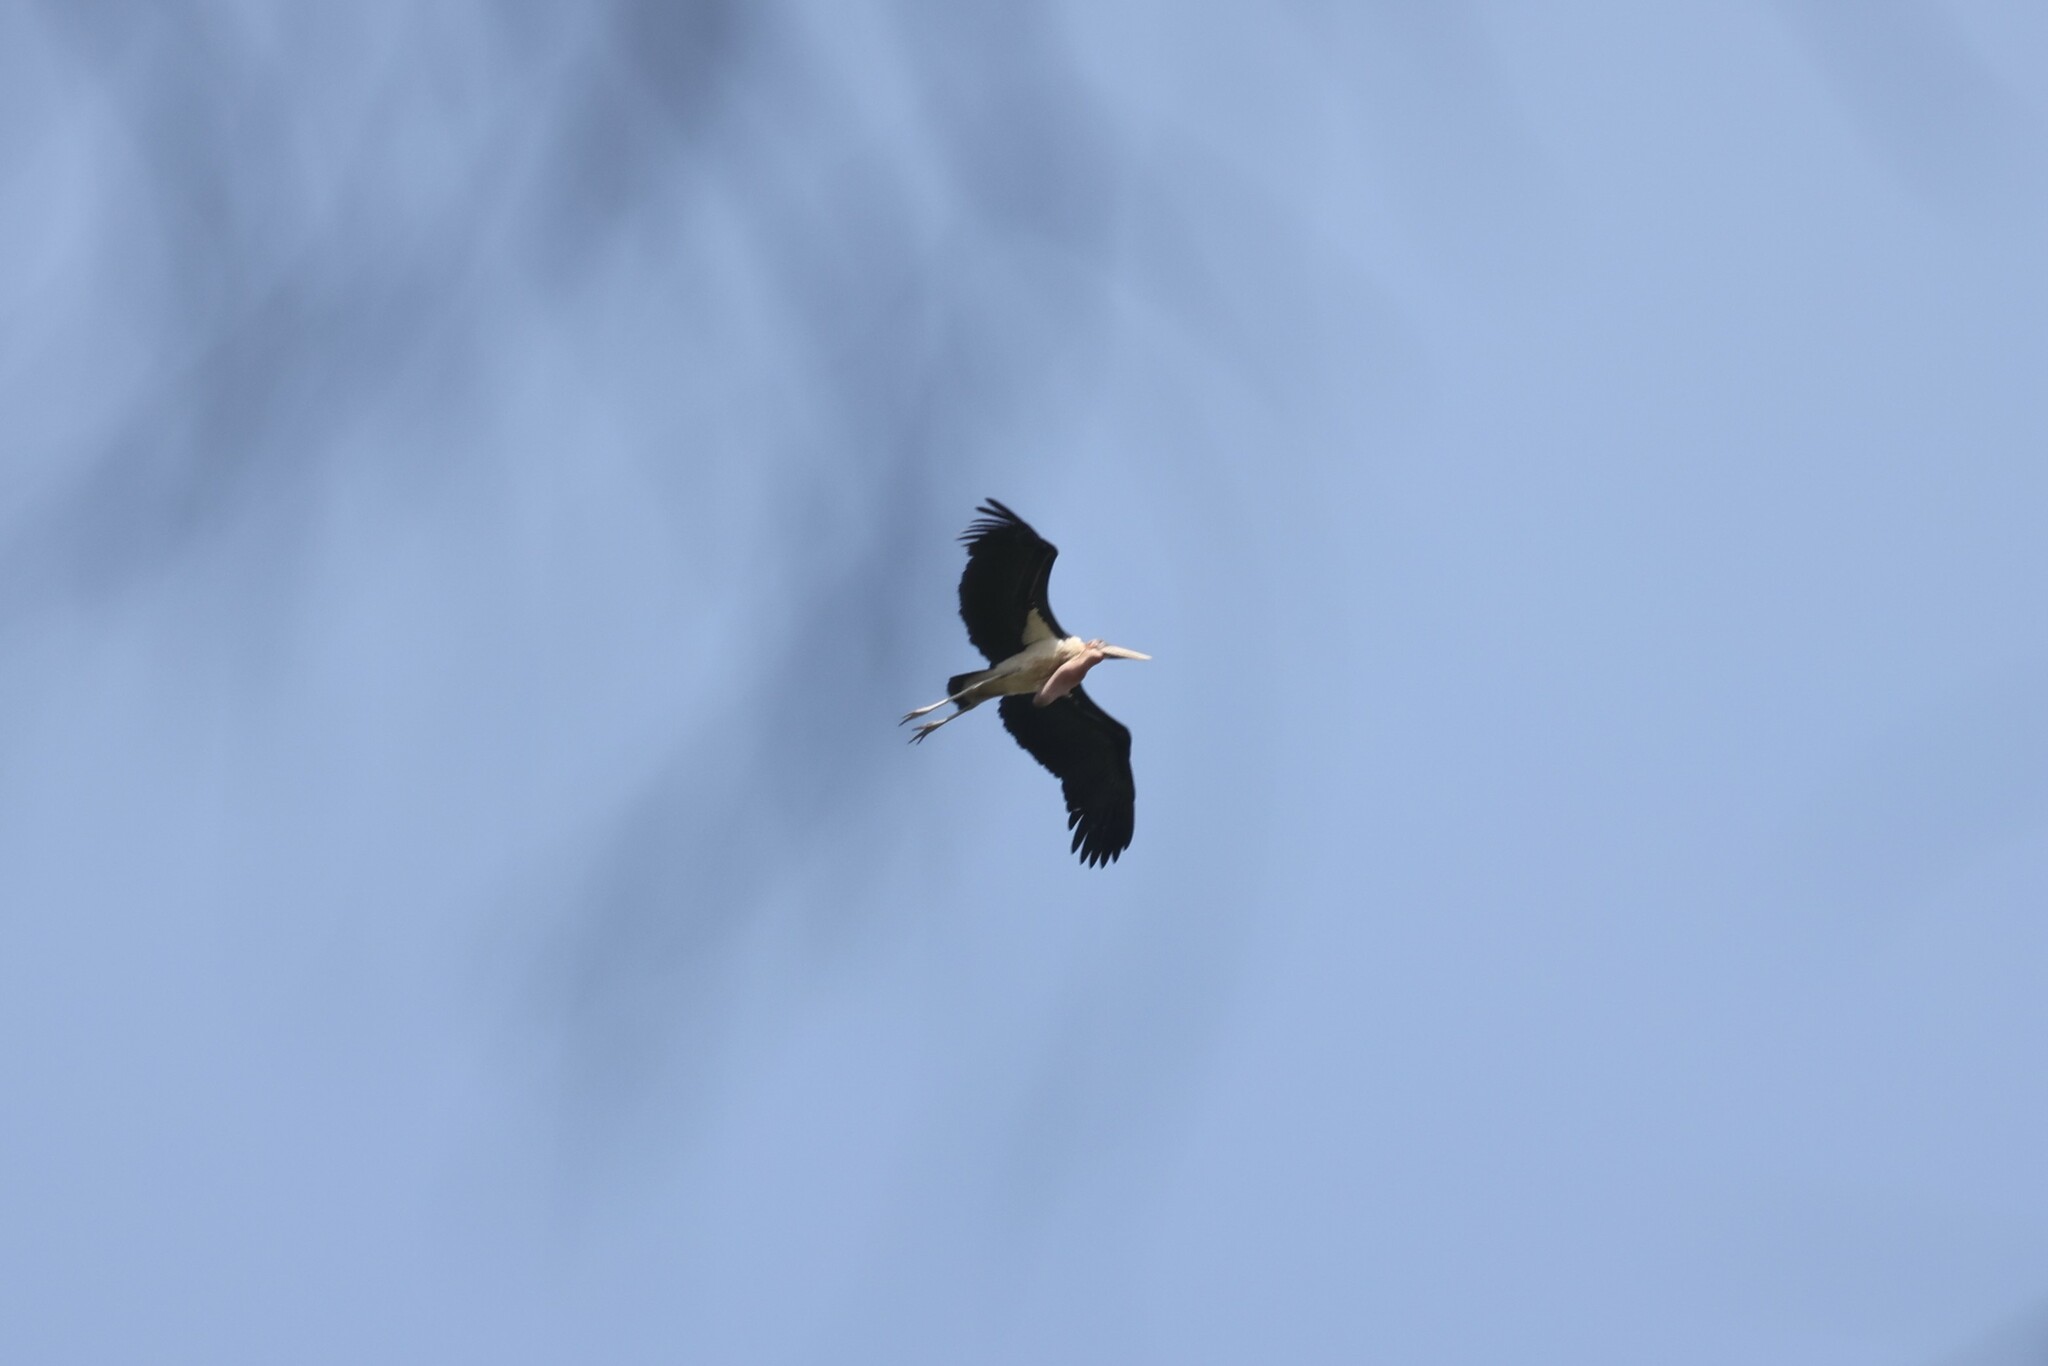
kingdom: Animalia
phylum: Chordata
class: Aves
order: Ciconiiformes
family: Ciconiidae
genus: Leptoptilos
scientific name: Leptoptilos crumenifer
